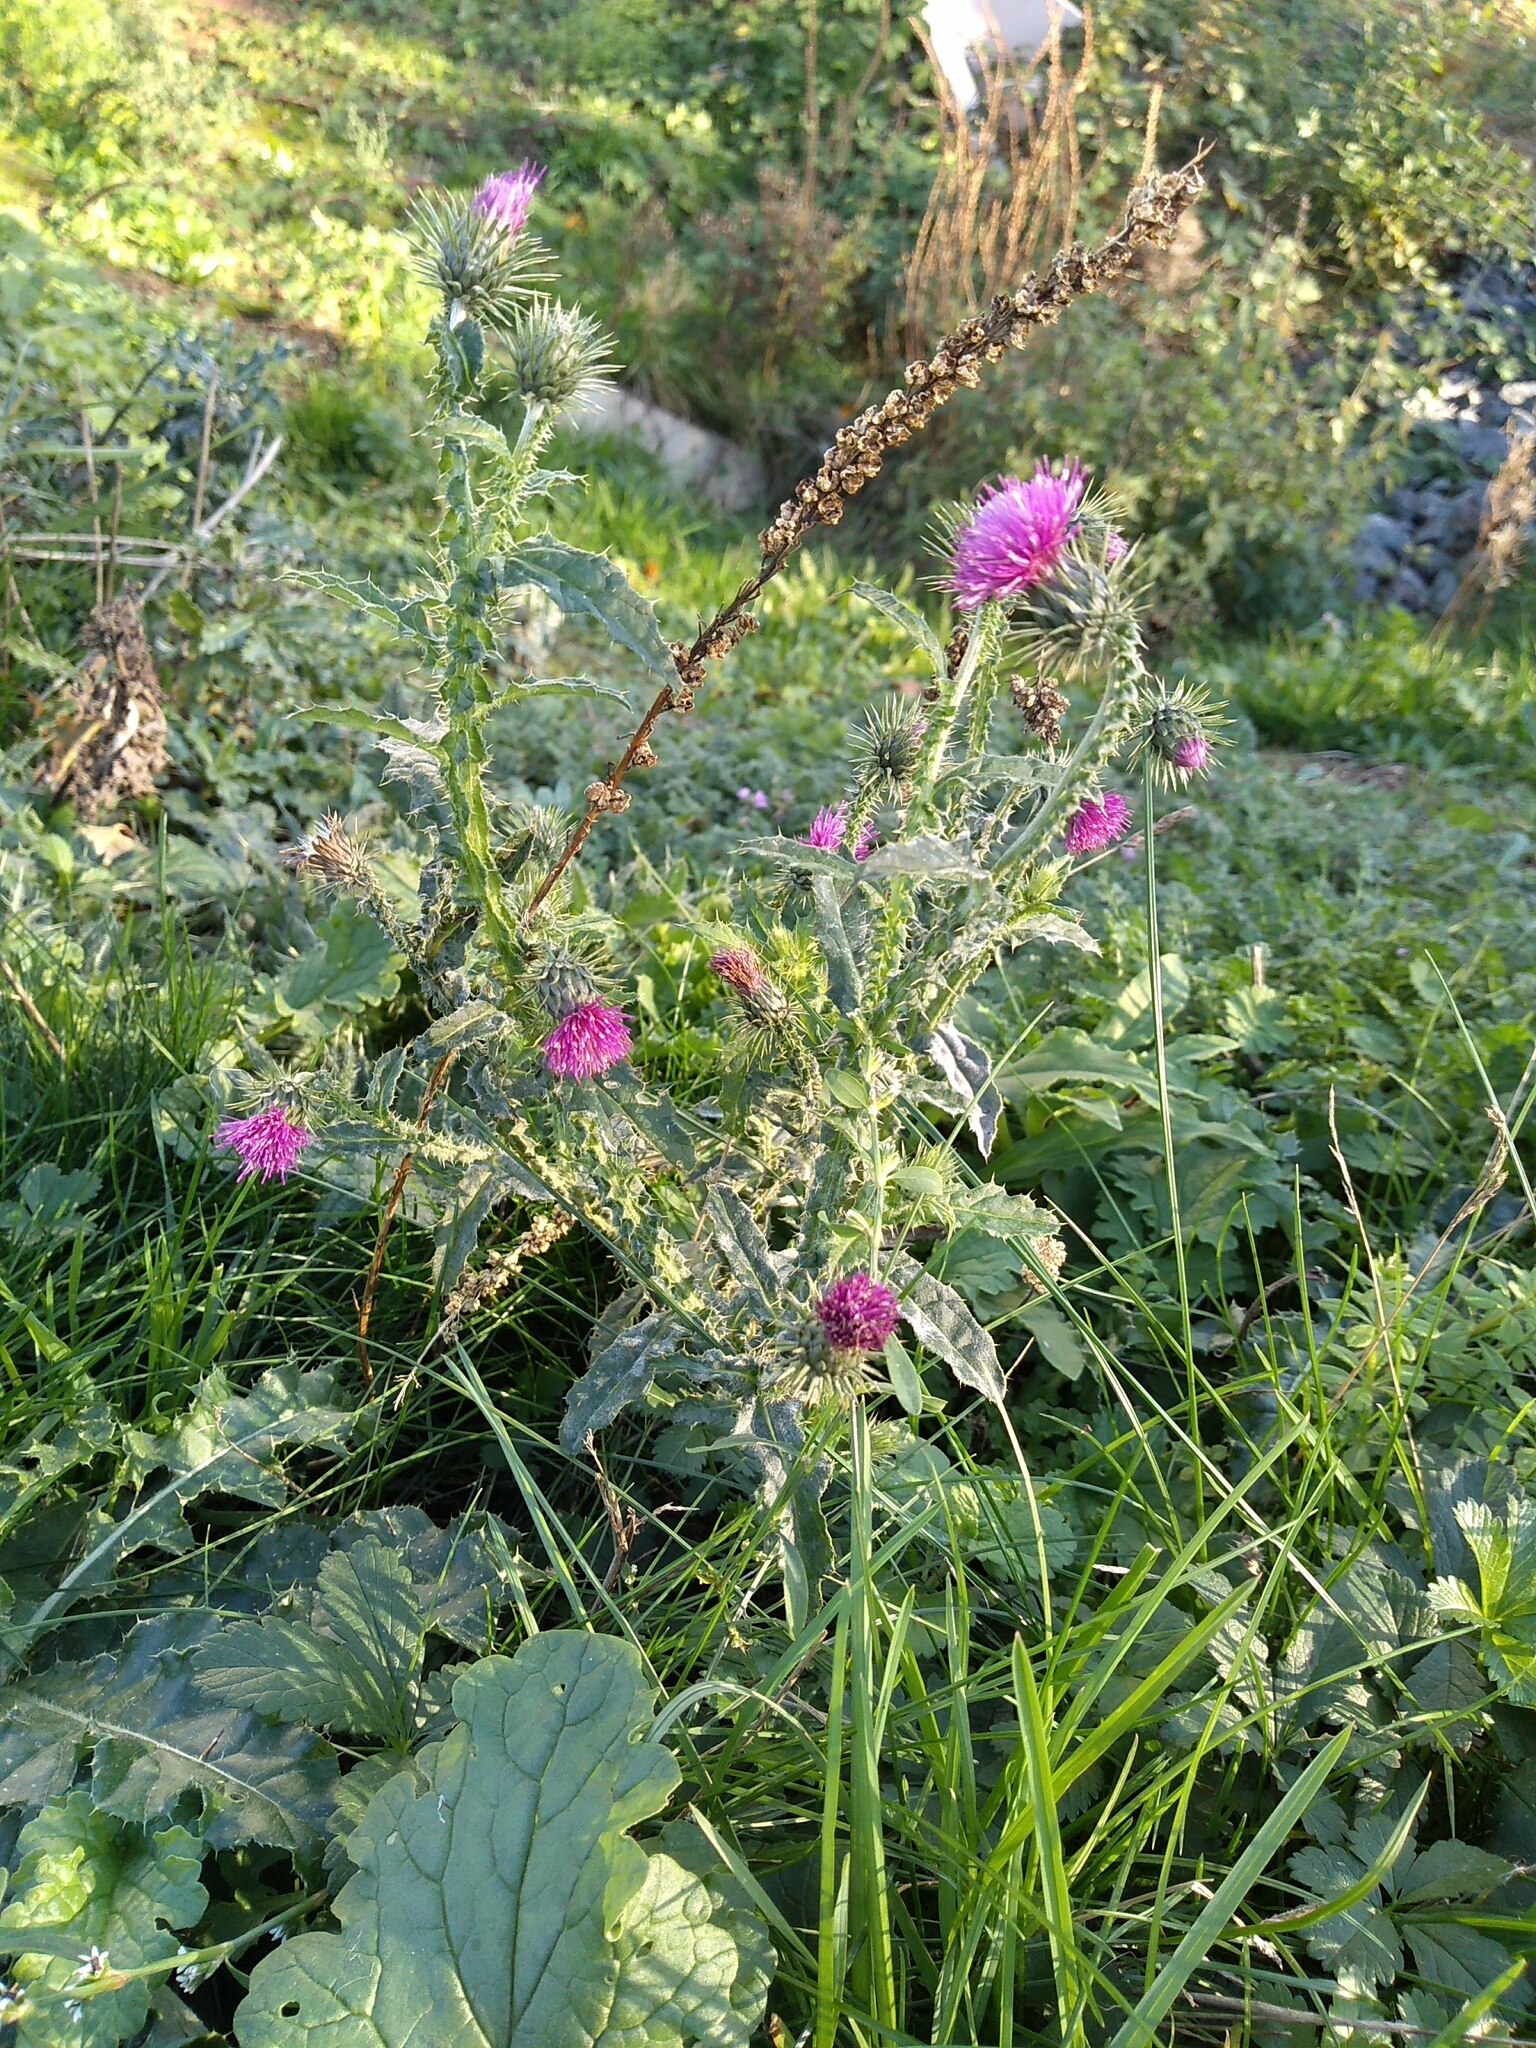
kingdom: Plantae
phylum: Tracheophyta
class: Magnoliopsida
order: Asterales
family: Asteraceae
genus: Carduus
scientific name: Carduus crispus
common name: Welted thistle
